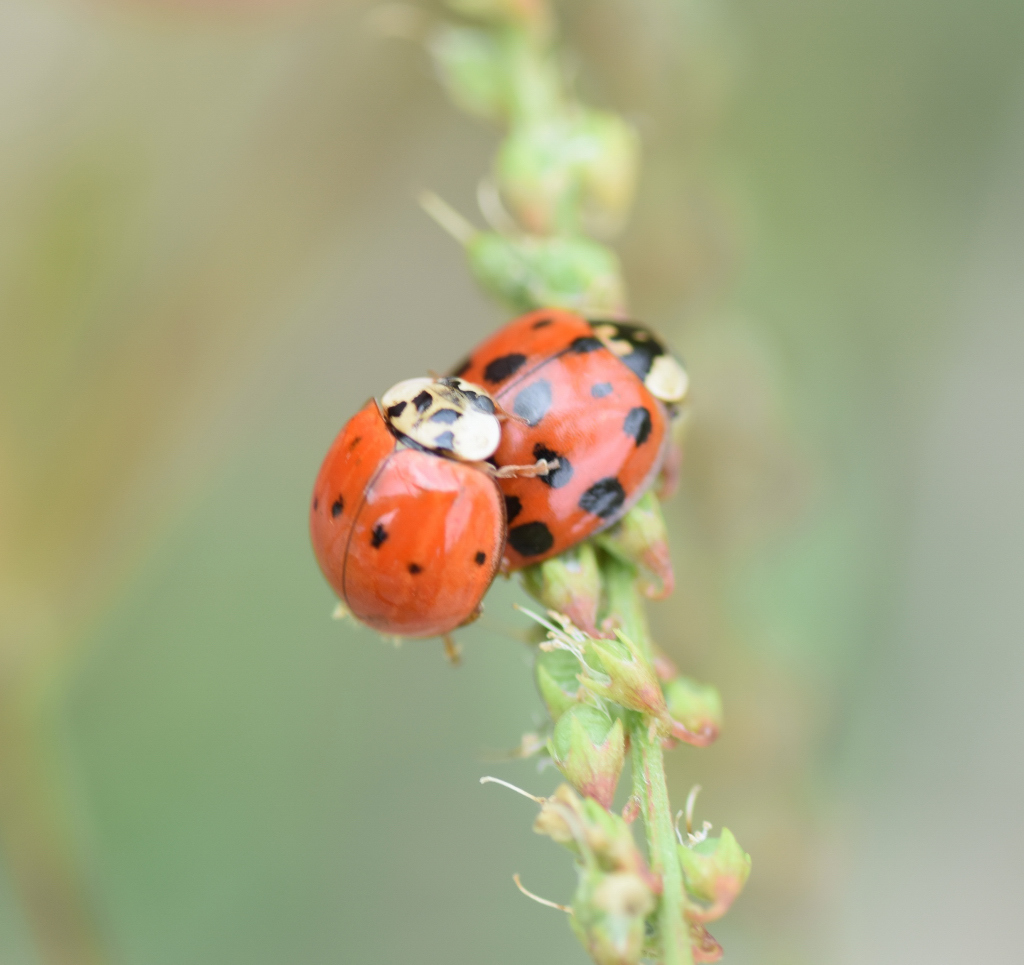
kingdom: Animalia
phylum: Arthropoda
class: Insecta
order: Coleoptera
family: Coccinellidae
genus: Harmonia
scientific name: Harmonia axyridis
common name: Harlequin ladybird
